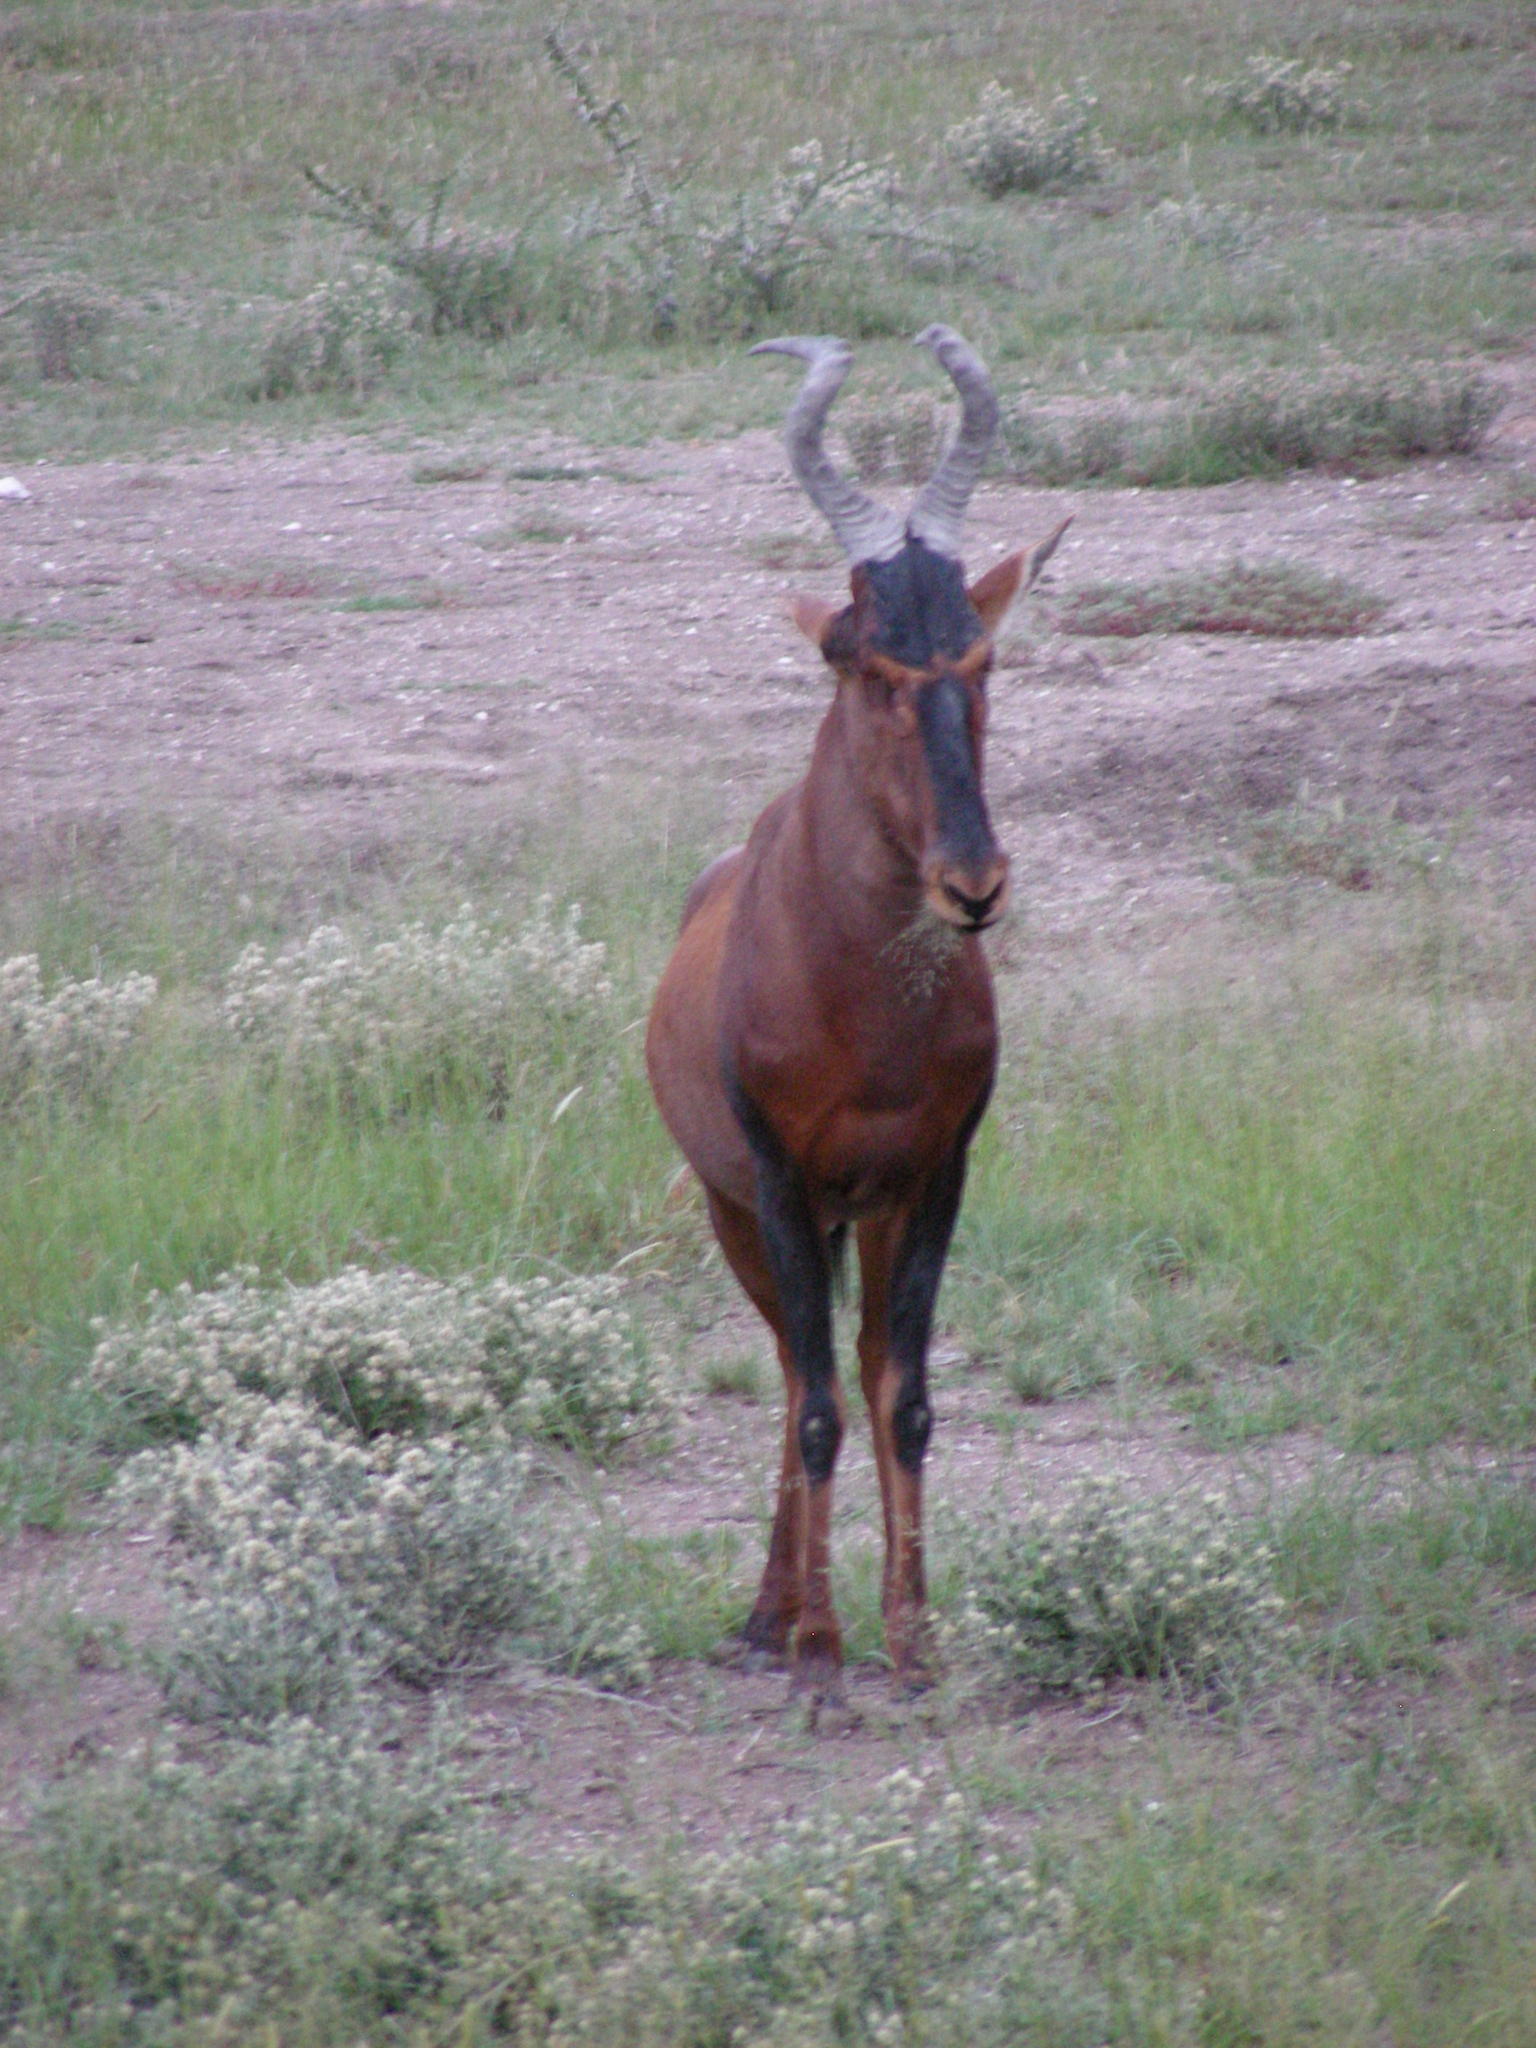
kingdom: Animalia
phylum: Chordata
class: Mammalia
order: Artiodactyla
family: Bovidae
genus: Alcelaphus
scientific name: Alcelaphus caama
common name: Red hartebeest
